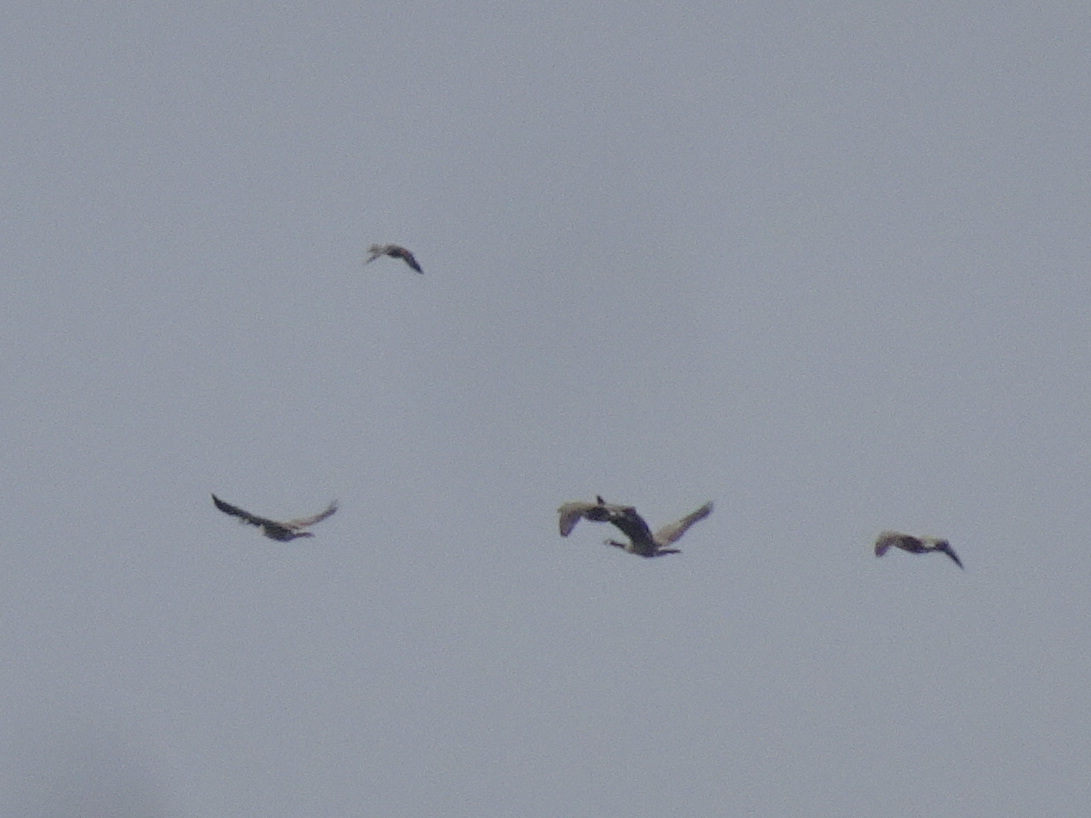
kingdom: Animalia
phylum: Chordata
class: Aves
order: Anseriformes
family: Anatidae
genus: Branta
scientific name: Branta canadensis
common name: Canada goose
